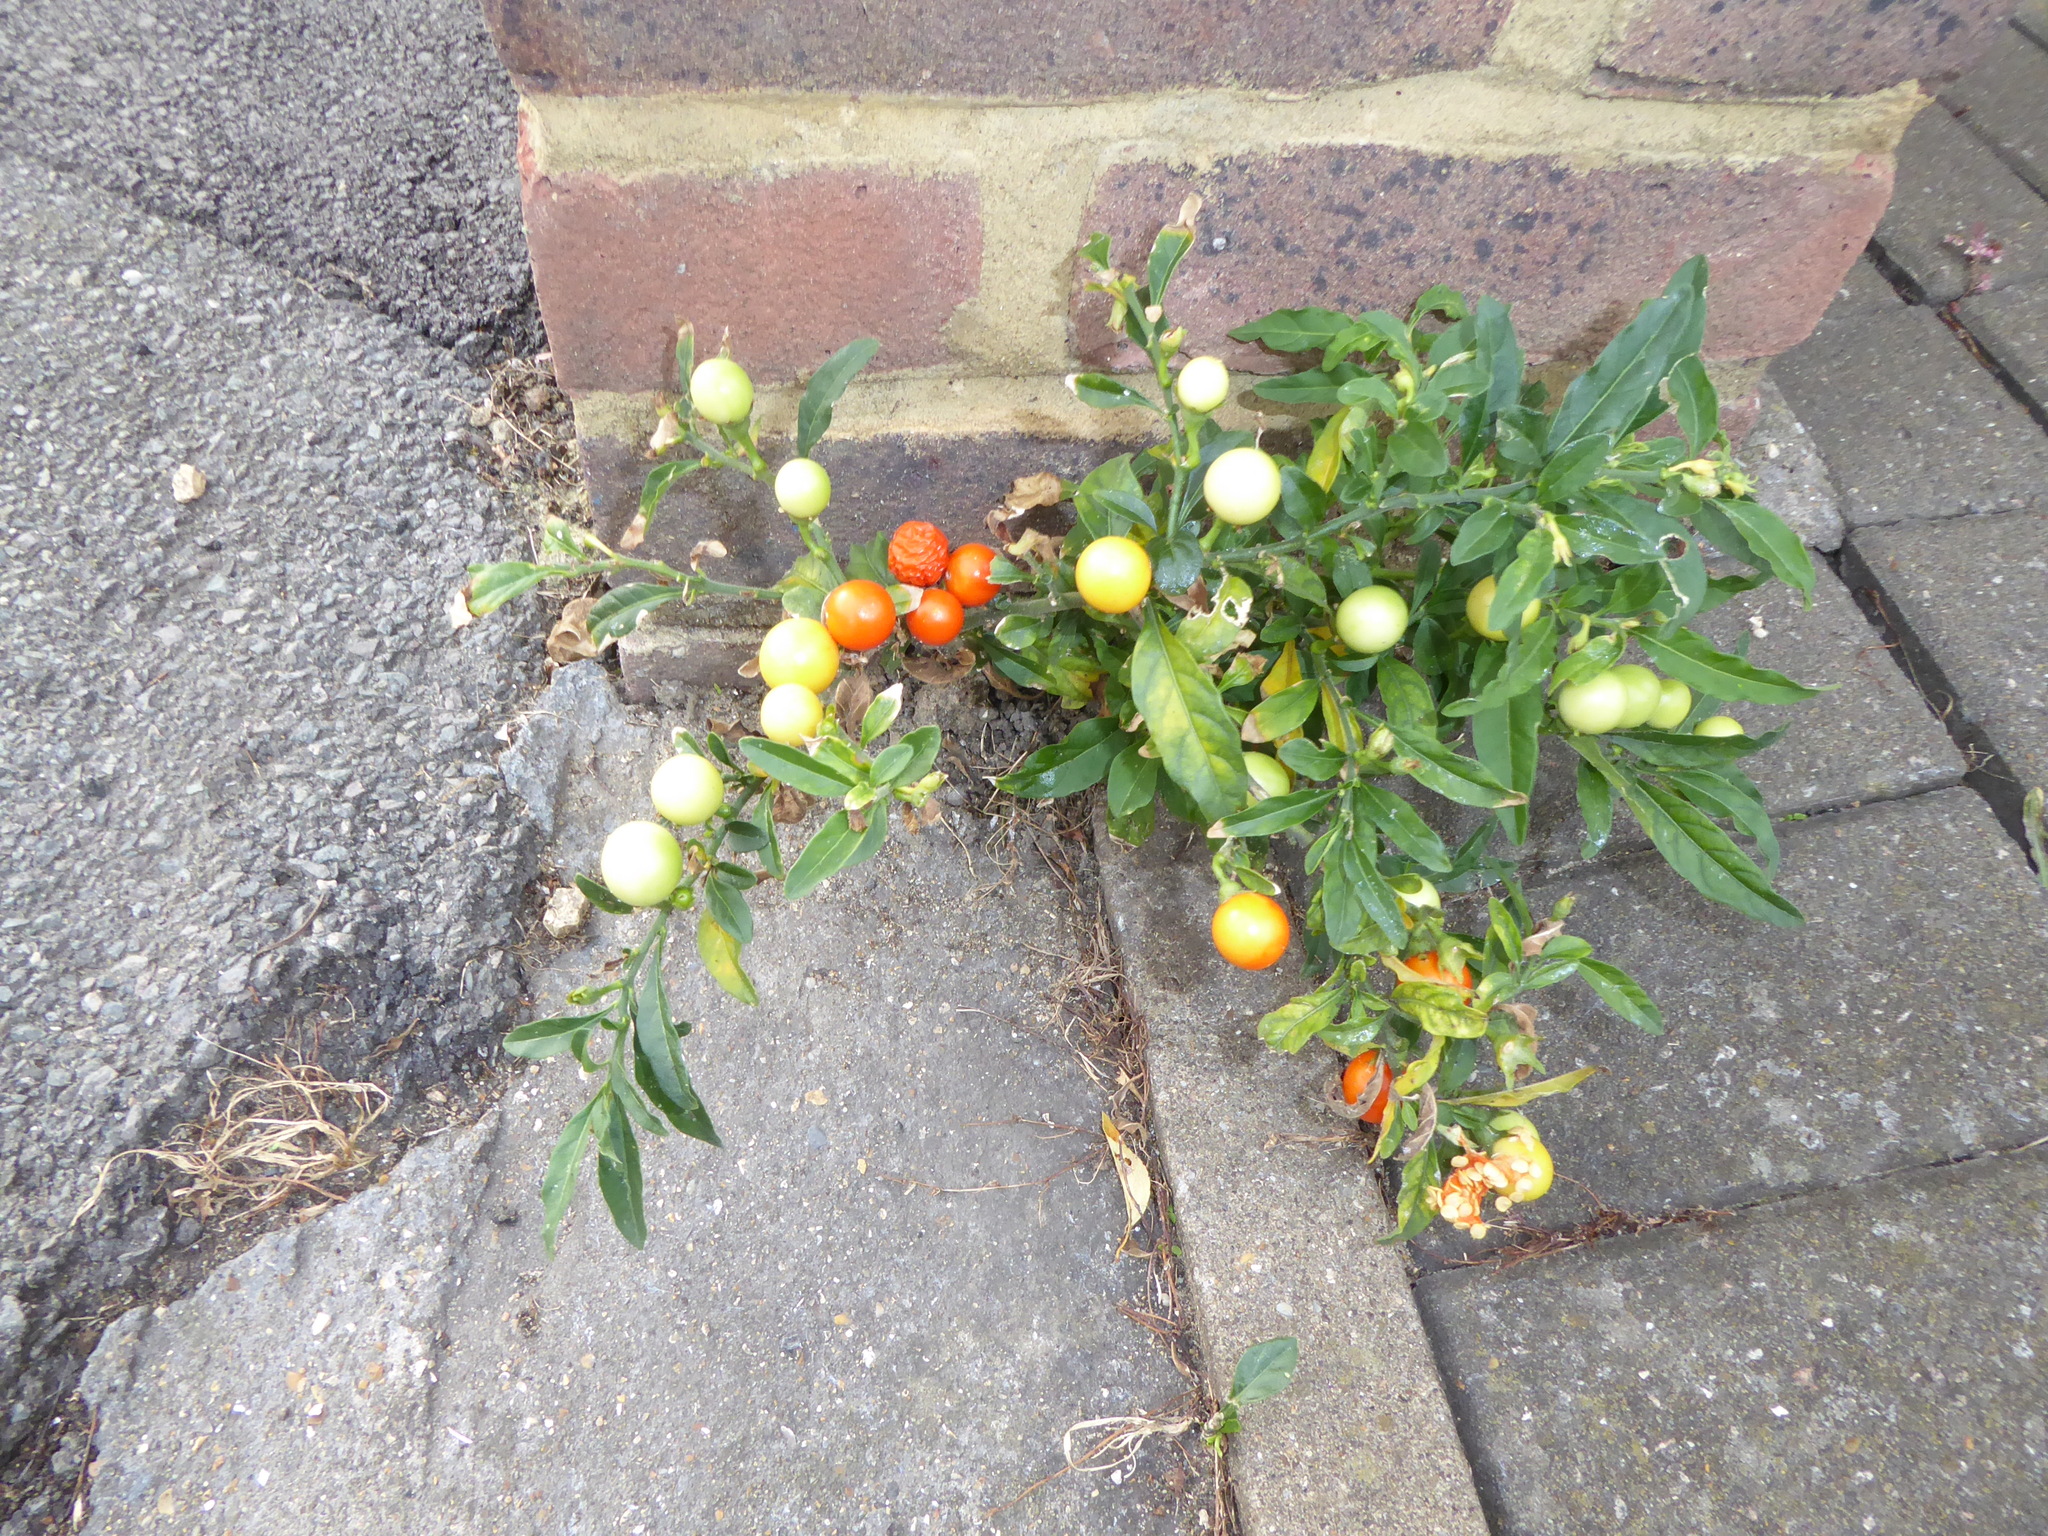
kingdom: Plantae
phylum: Tracheophyta
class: Magnoliopsida
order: Solanales
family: Solanaceae
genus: Solanum
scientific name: Solanum pseudocapsicum
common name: Jerusalem cherry
